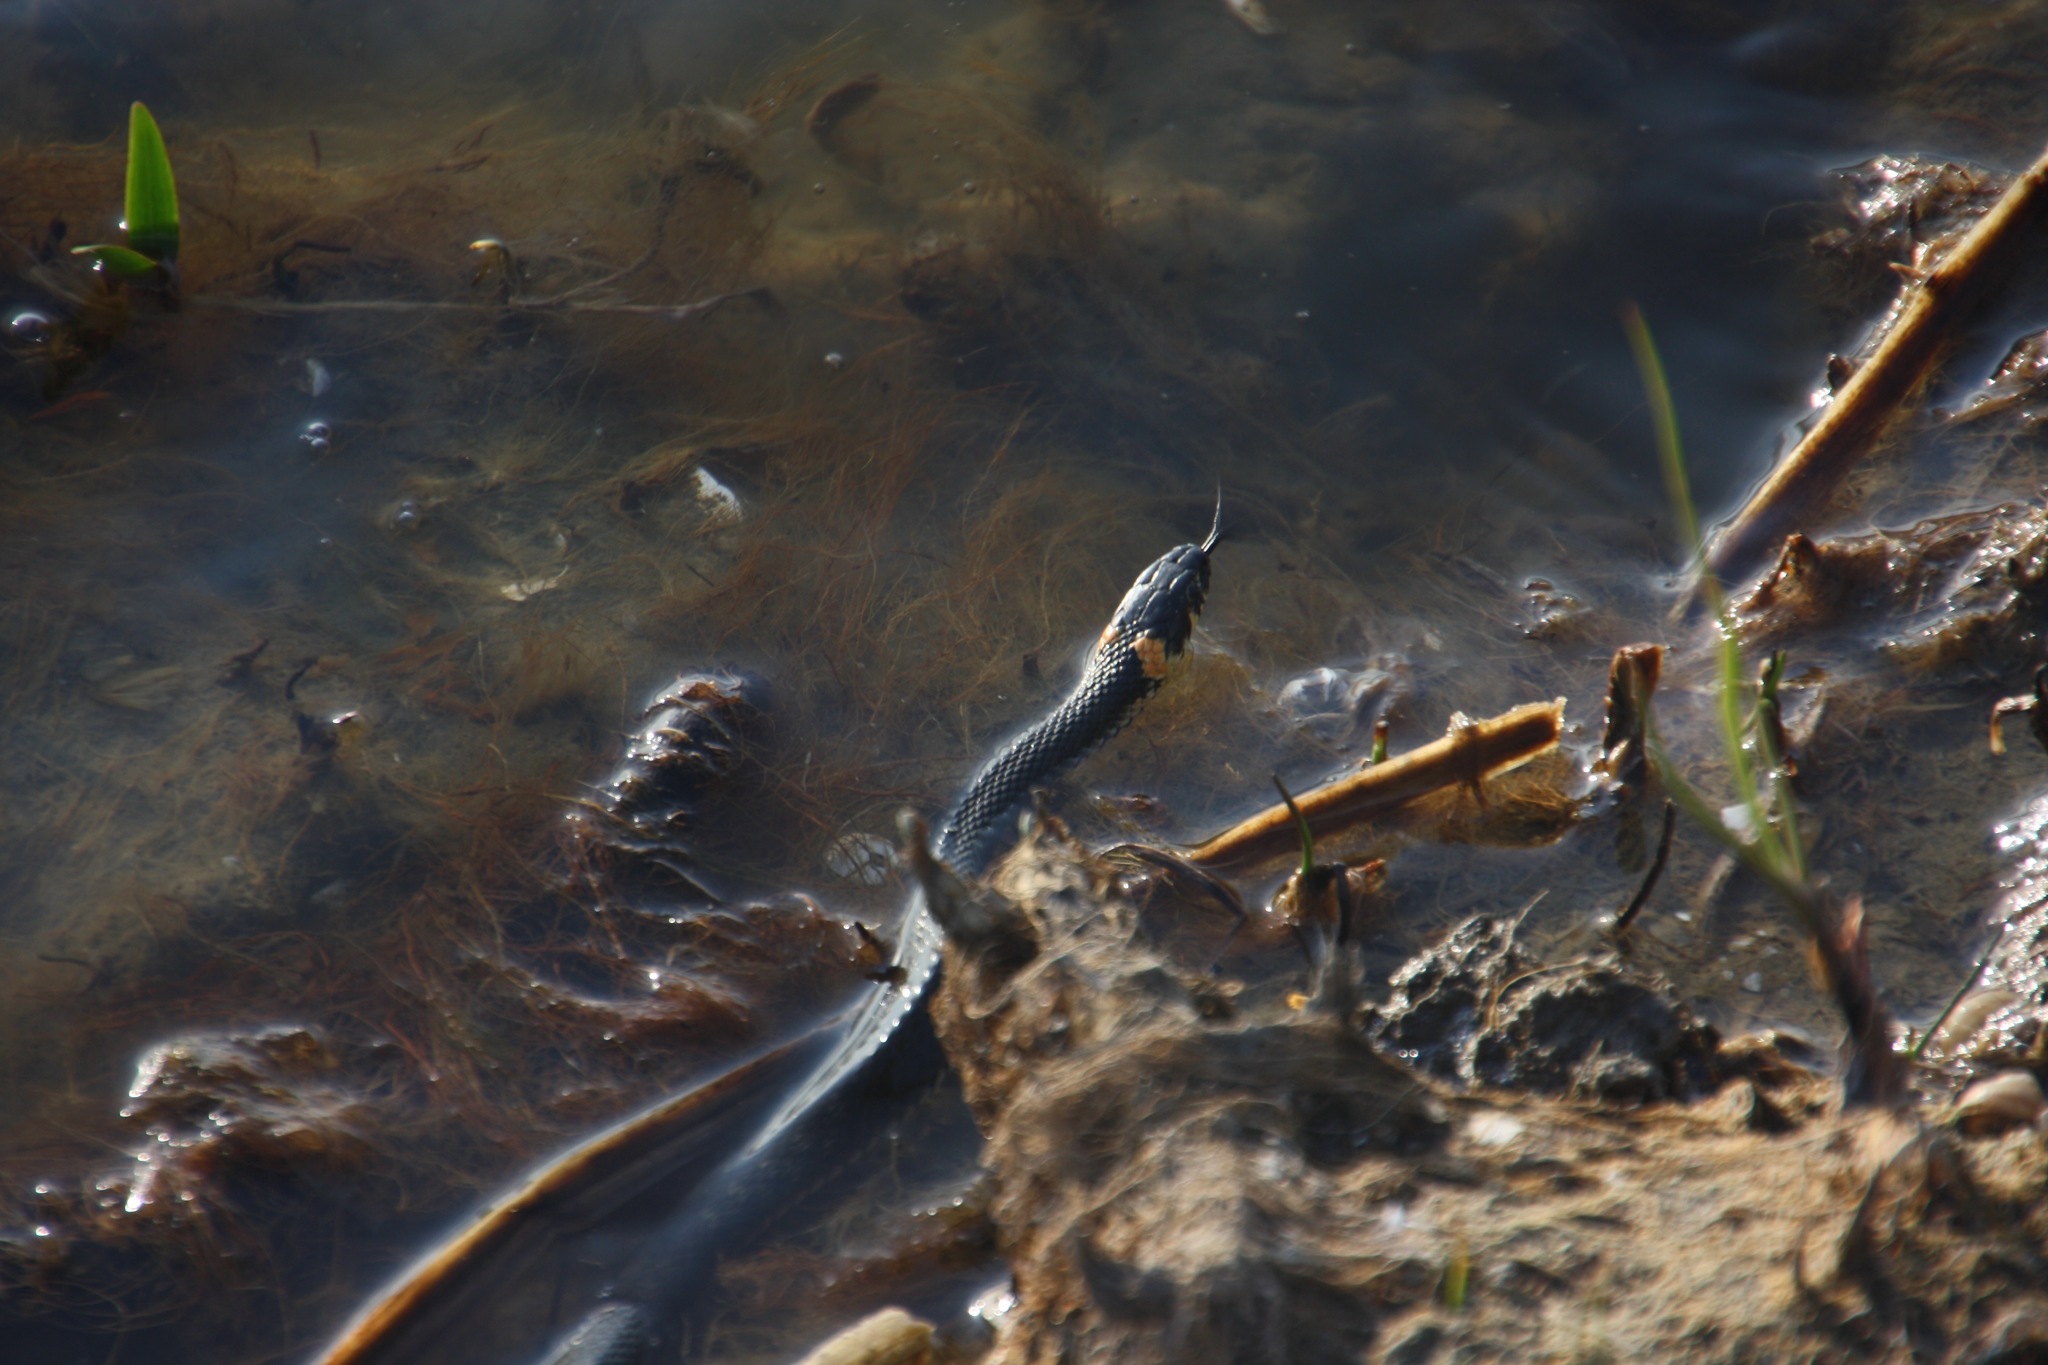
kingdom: Animalia
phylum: Chordata
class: Squamata
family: Colubridae
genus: Natrix
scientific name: Natrix natrix
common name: Grass snake
